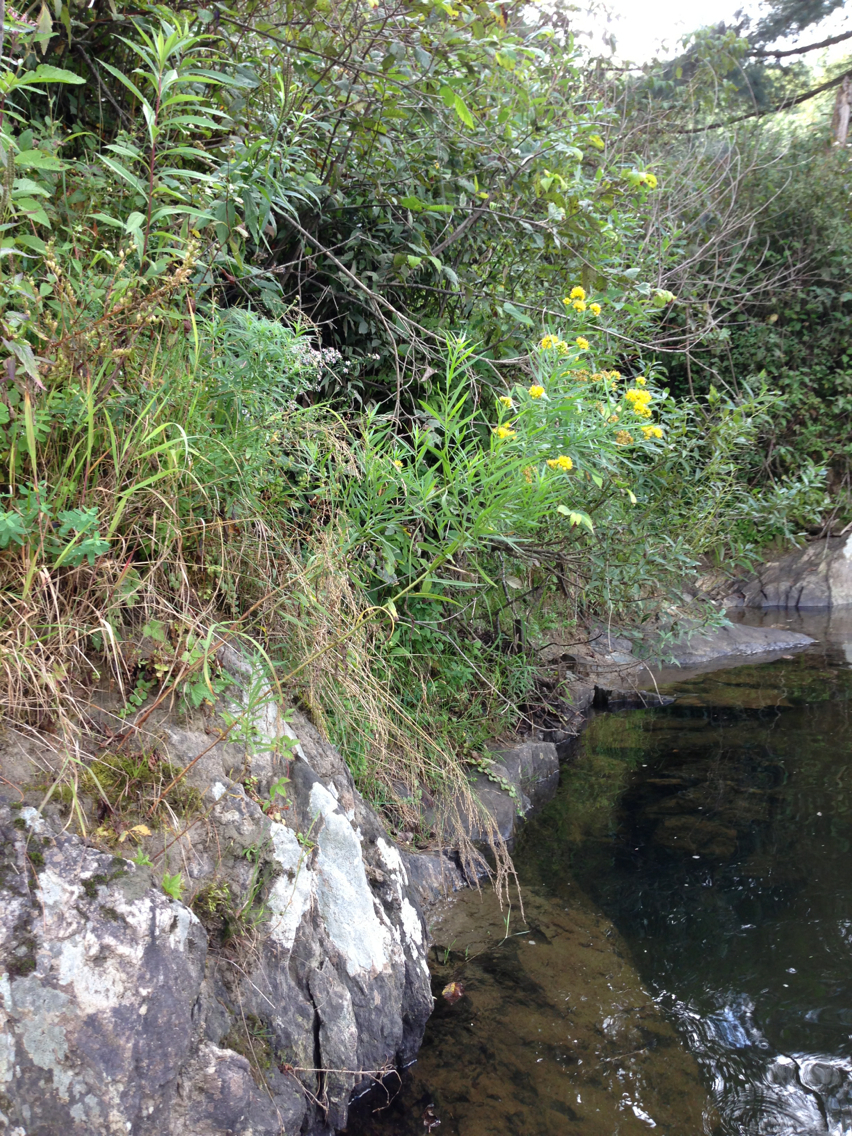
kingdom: Plantae
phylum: Tracheophyta
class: Magnoliopsida
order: Asterales
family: Asteraceae
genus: Euthamia
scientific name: Euthamia graminifolia
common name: Common goldentop
